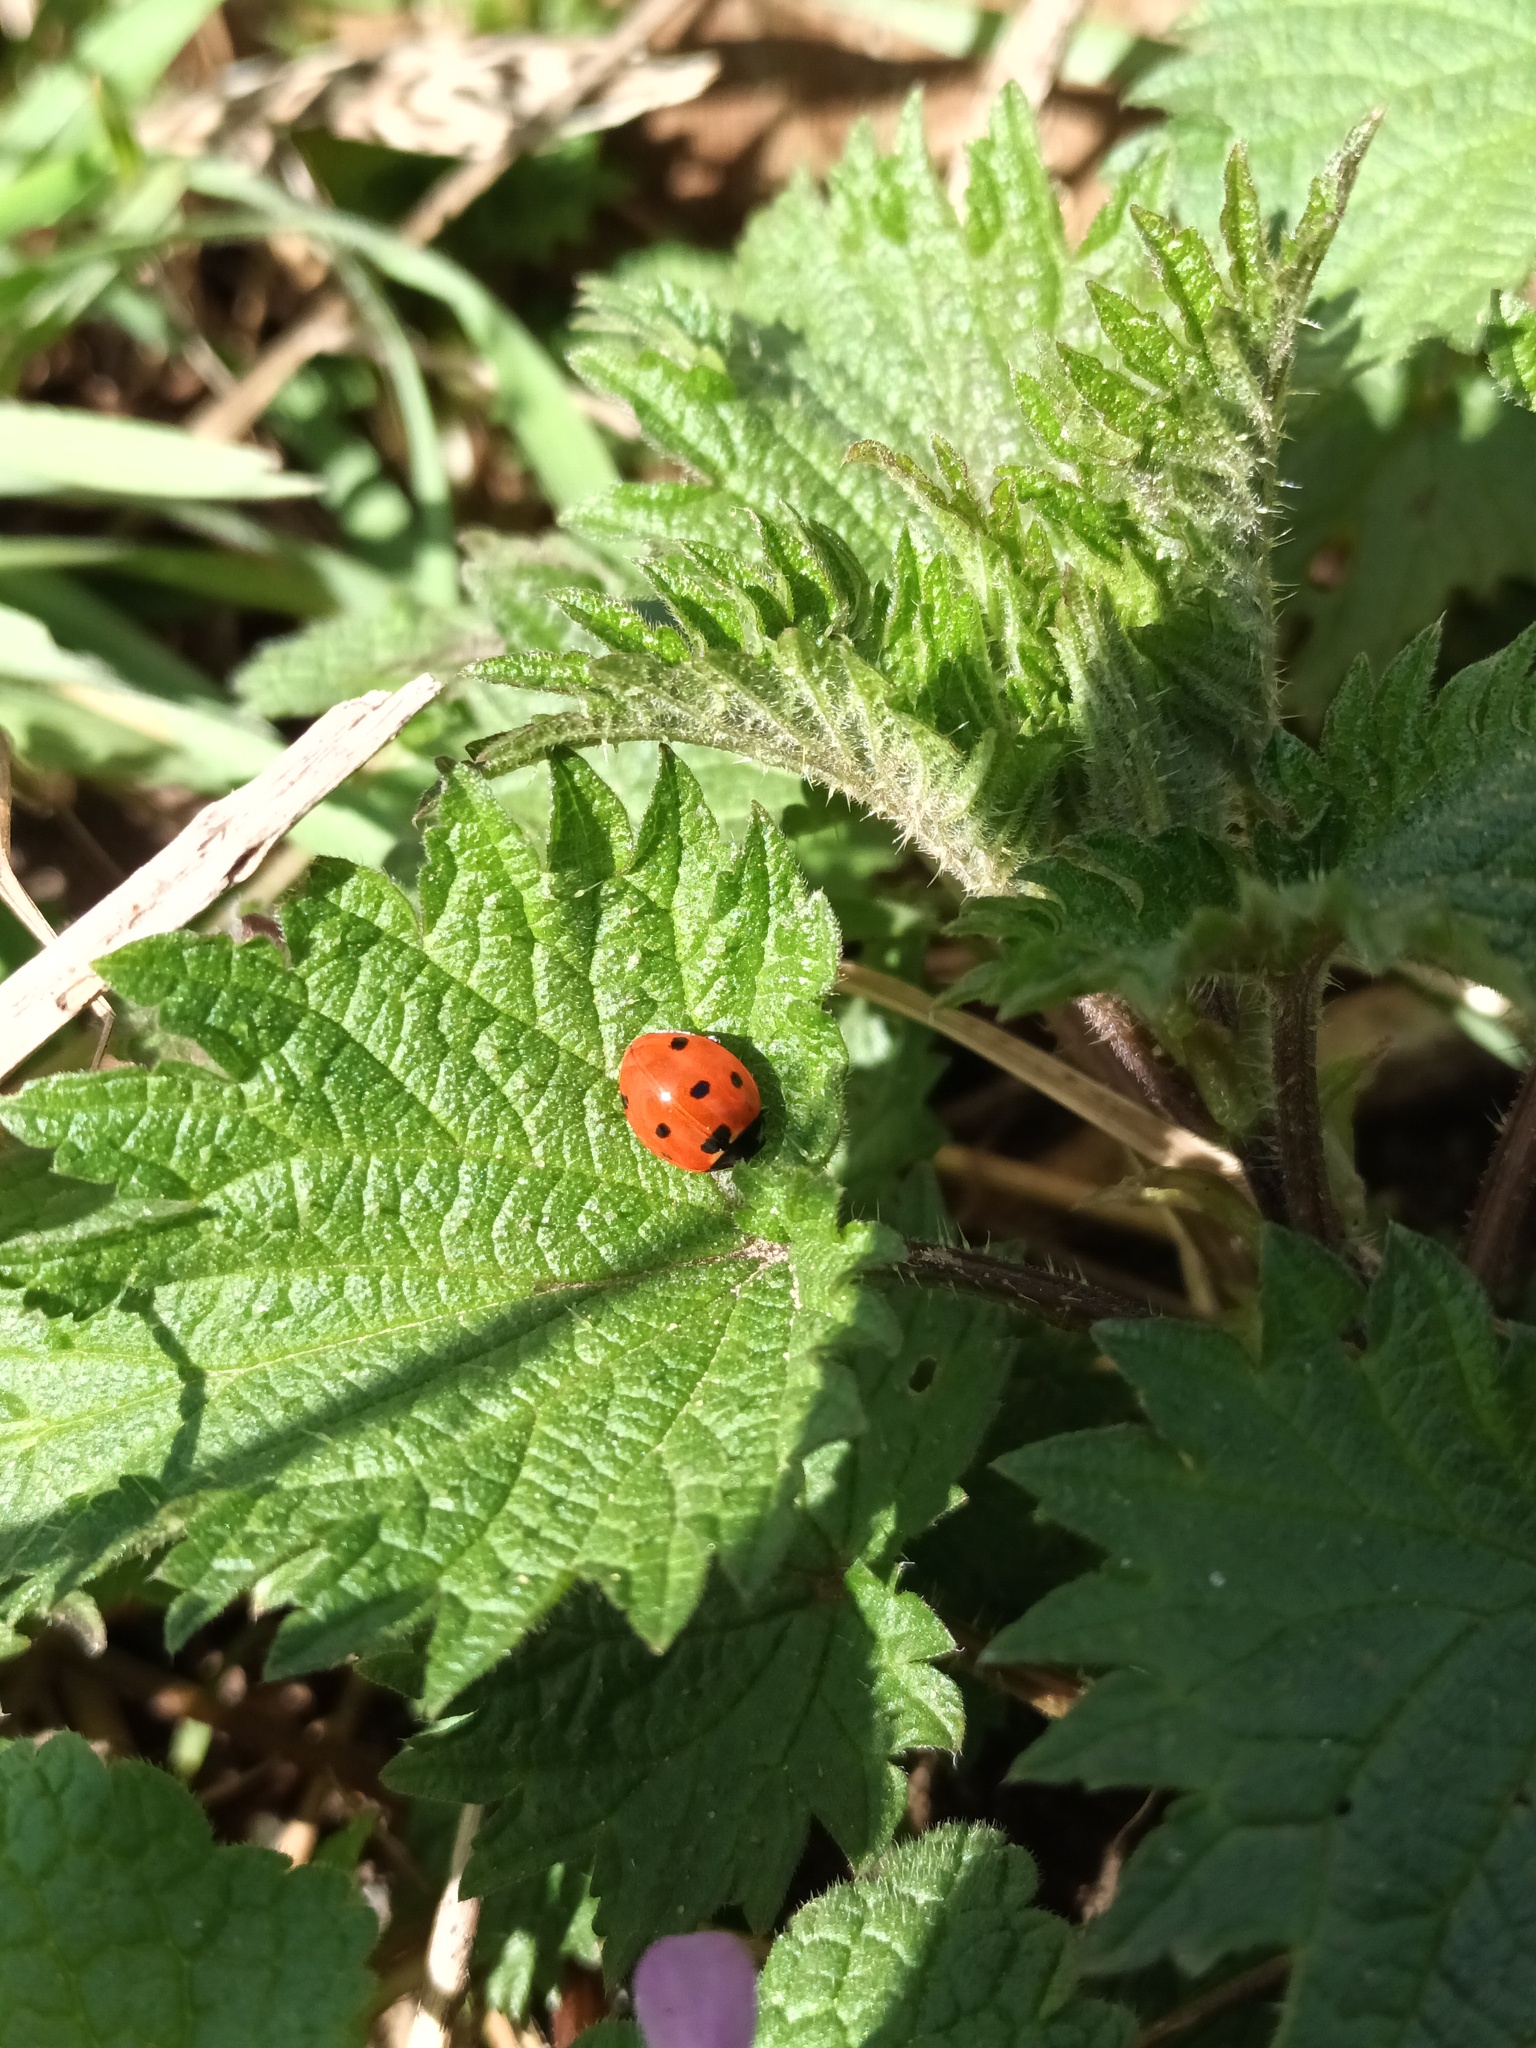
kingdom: Animalia
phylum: Arthropoda
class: Insecta
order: Coleoptera
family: Coccinellidae
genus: Coccinella
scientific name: Coccinella septempunctata
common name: Sevenspotted lady beetle
